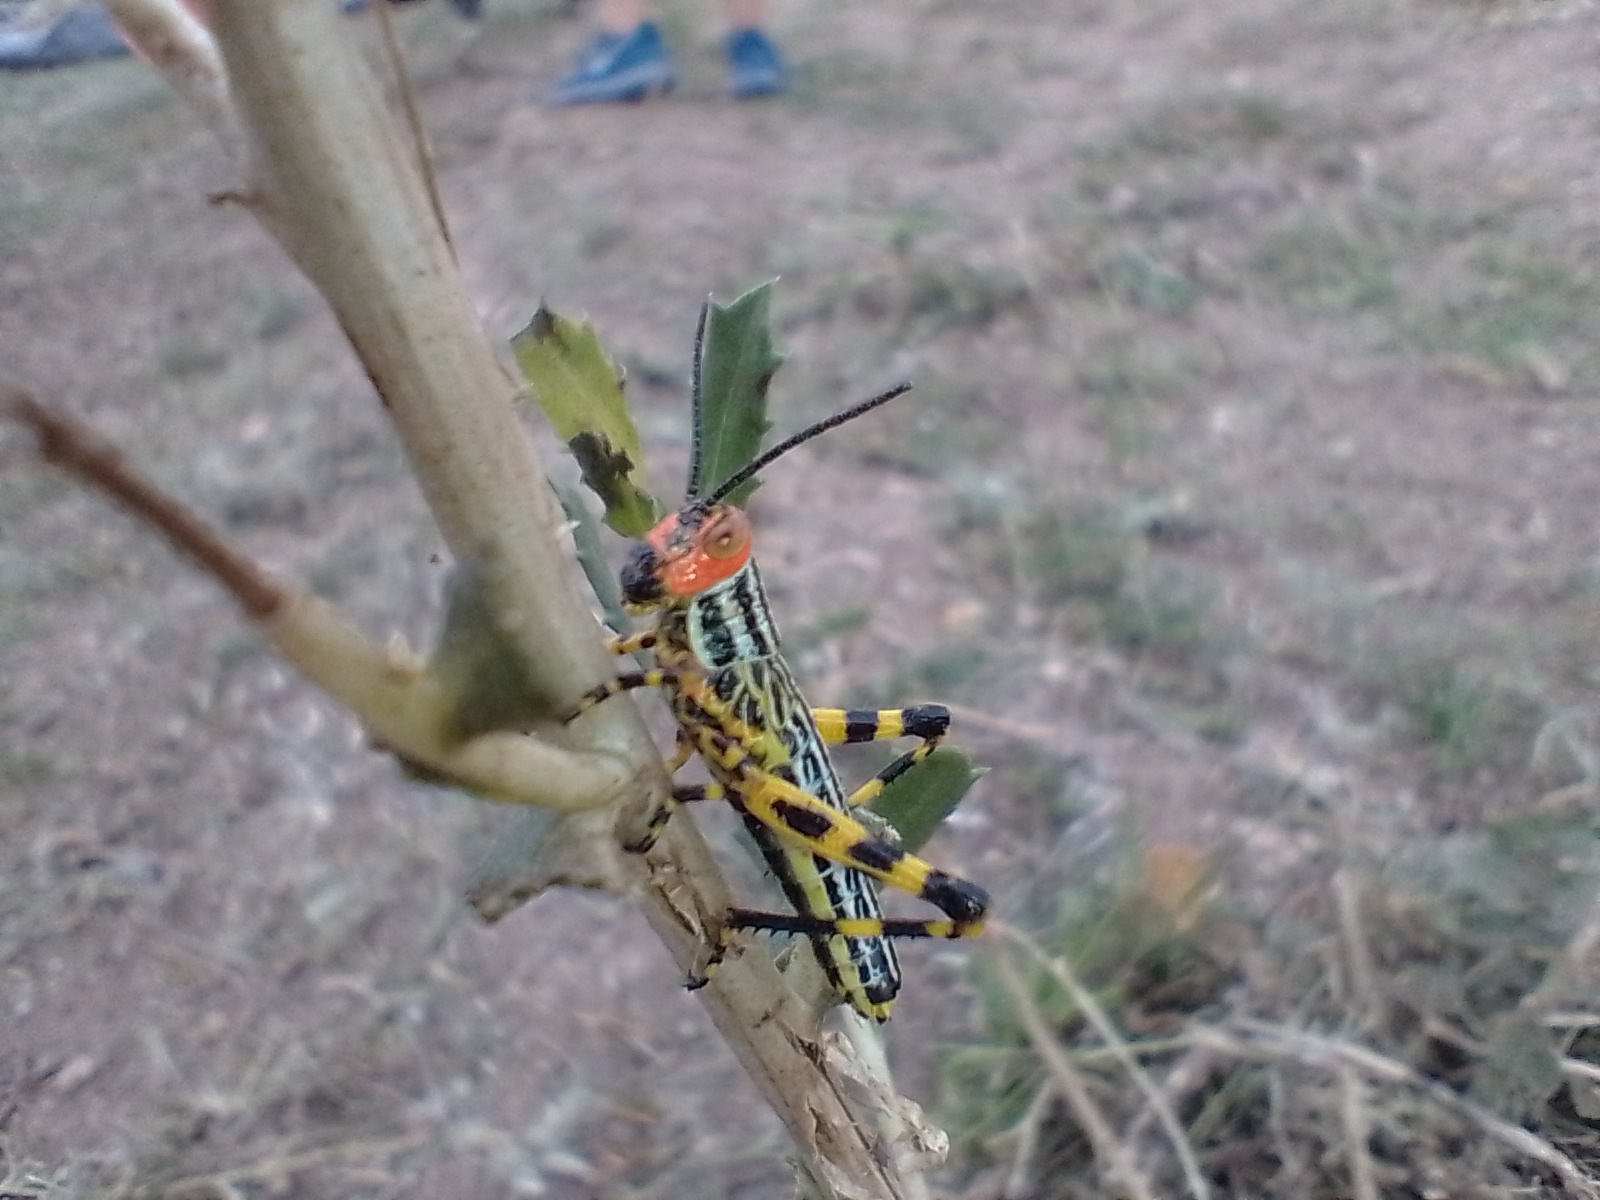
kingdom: Animalia
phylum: Arthropoda
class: Insecta
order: Orthoptera
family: Romaleidae
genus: Zoniopoda
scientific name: Zoniopoda tarsata
